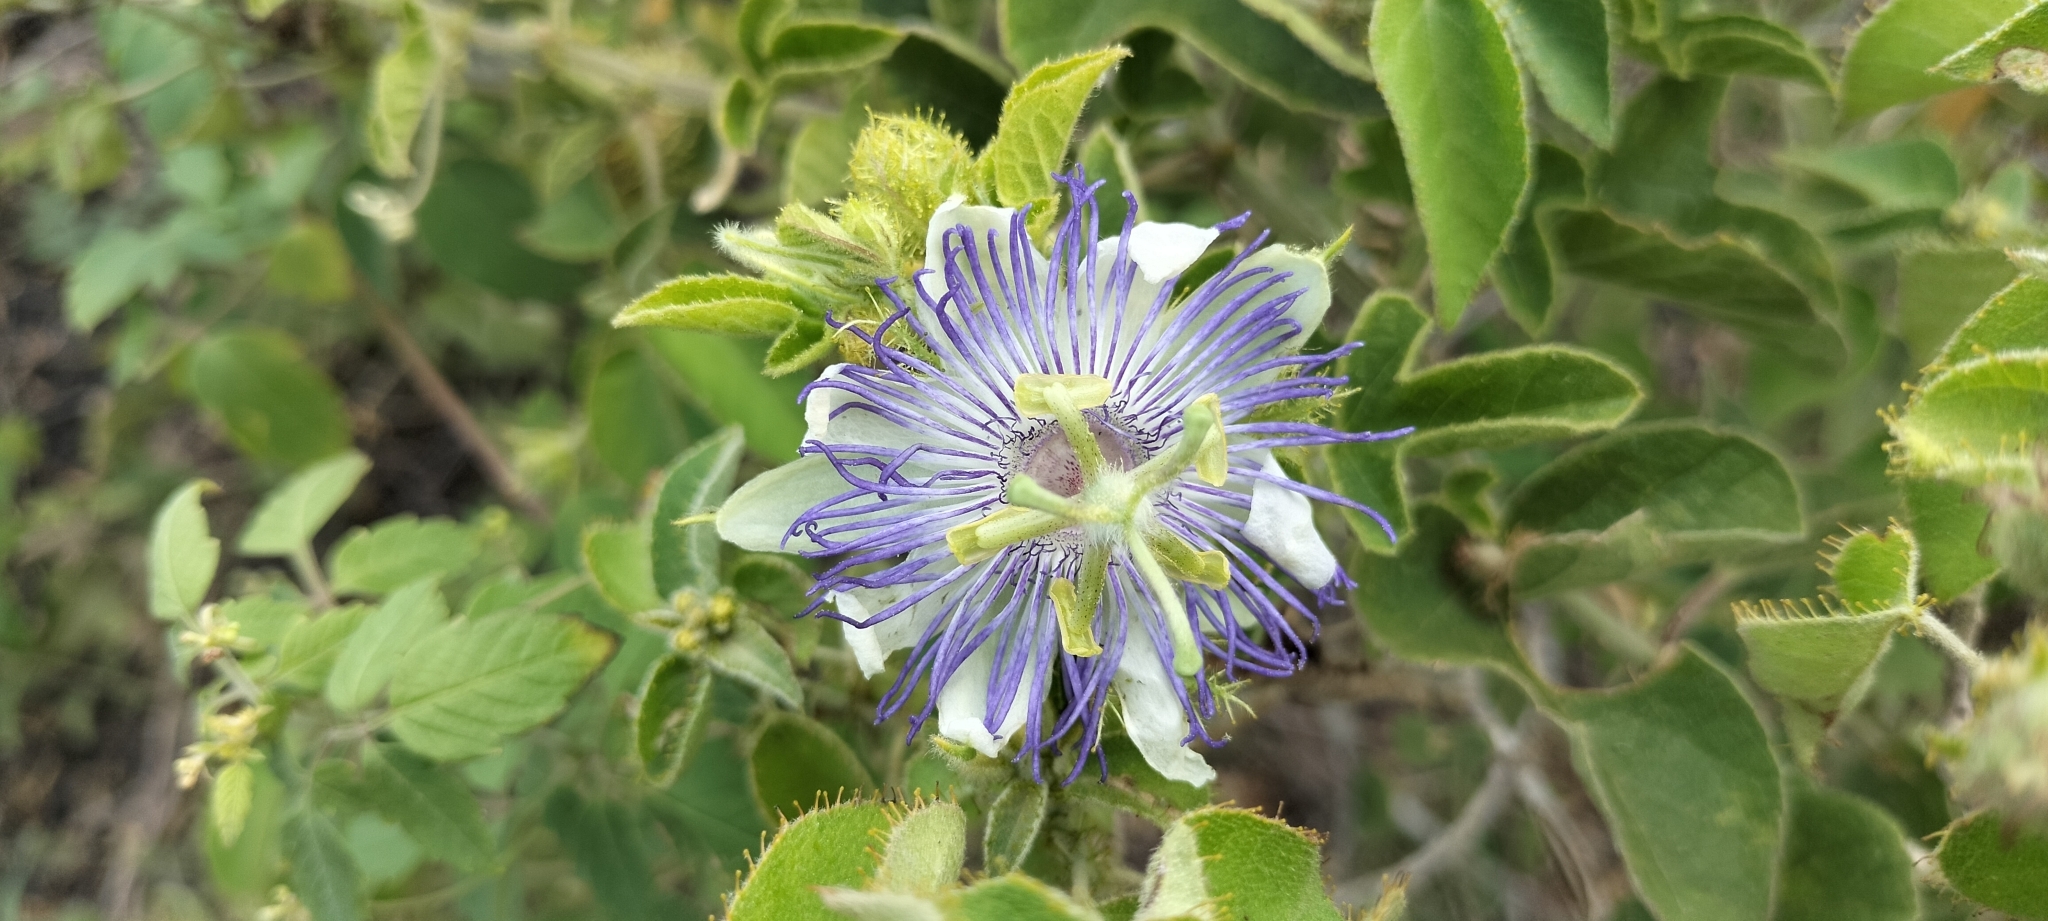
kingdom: Plantae
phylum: Tracheophyta
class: Magnoliopsida
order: Malpighiales
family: Passifloraceae
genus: Passiflora
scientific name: Passiflora foetida
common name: Fetid passionflower
